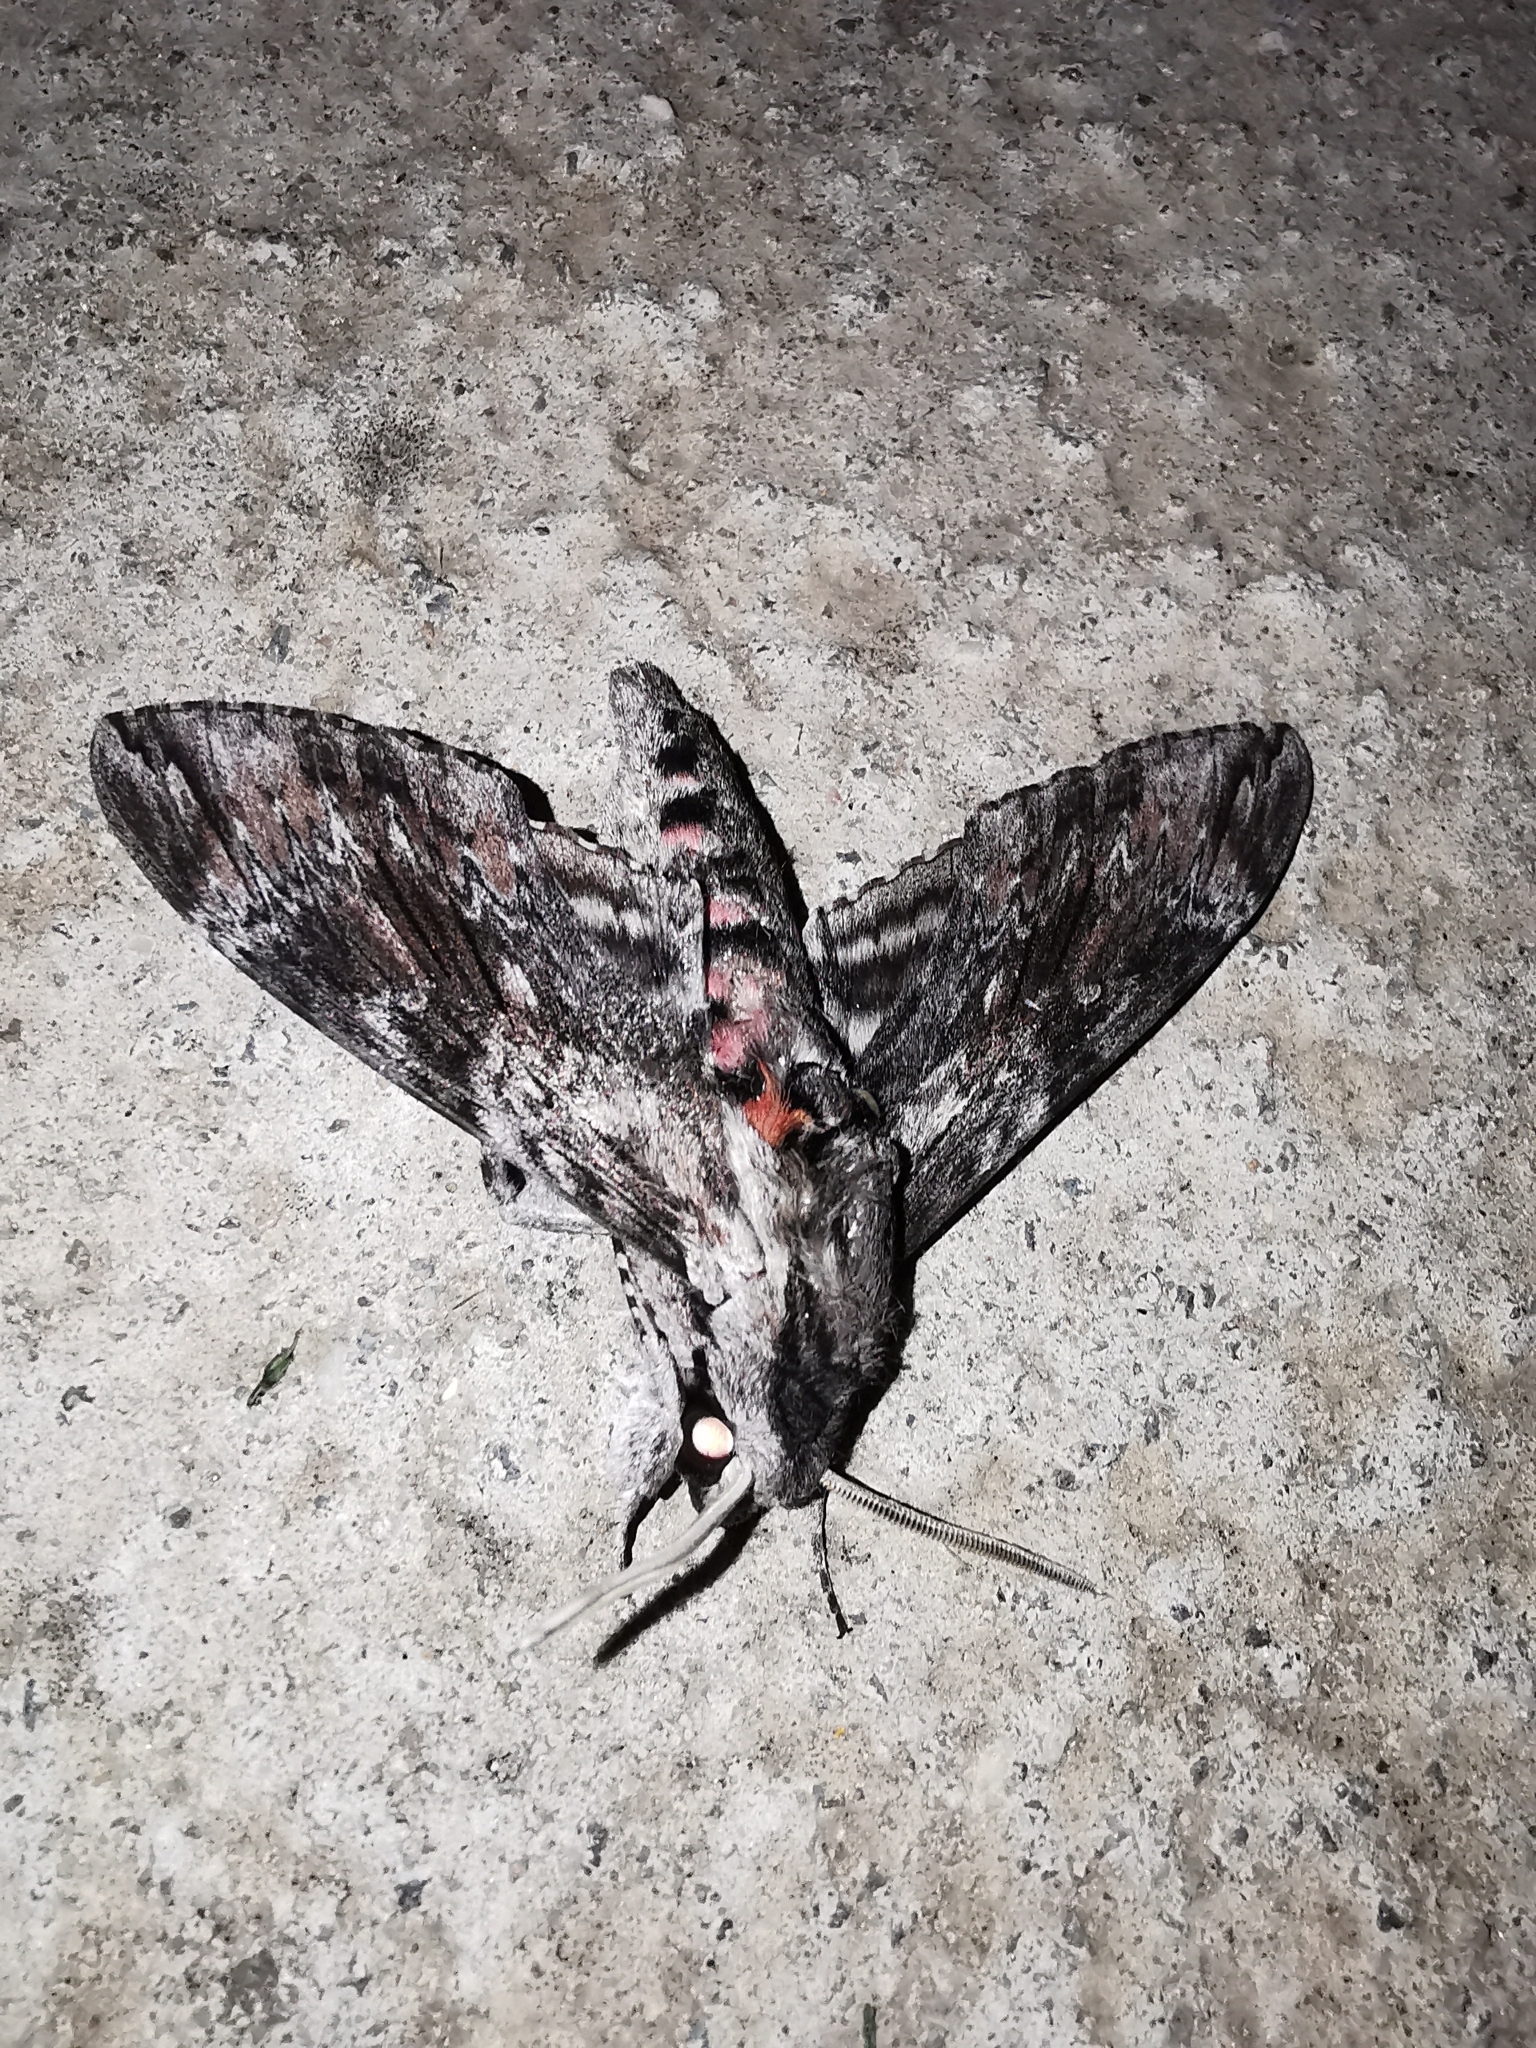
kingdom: Animalia
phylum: Arthropoda
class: Insecta
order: Lepidoptera
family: Sphingidae
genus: Agrius
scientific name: Agrius convolvuli
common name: Convolvulus hawkmoth
